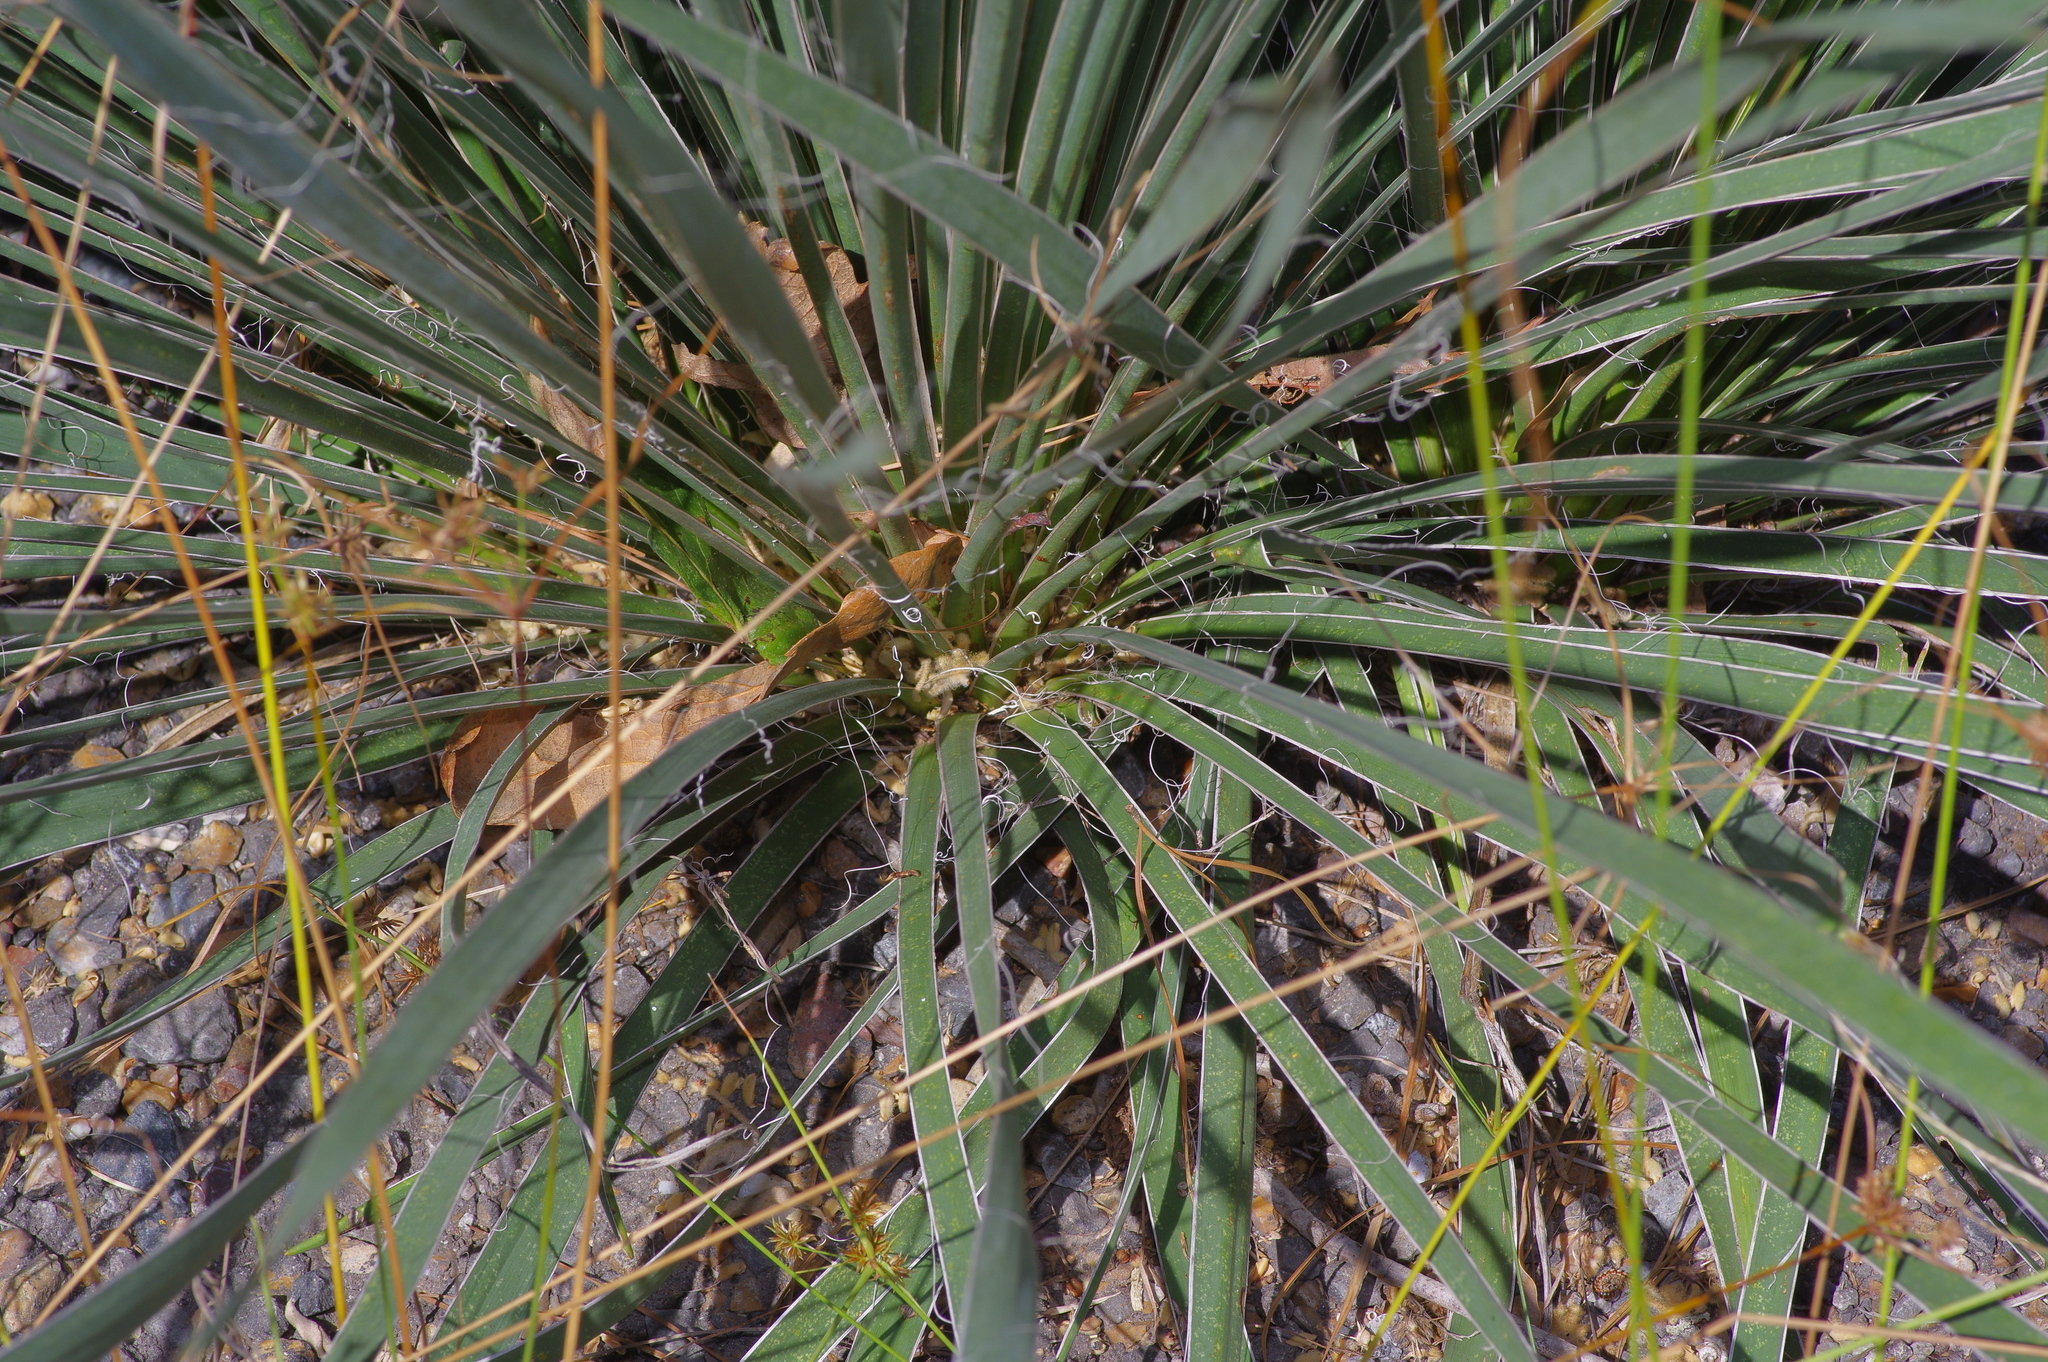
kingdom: Plantae
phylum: Tracheophyta
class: Liliopsida
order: Asparagales
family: Asparagaceae
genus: Yucca
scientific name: Yucca flaccida
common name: Adam's-needle
